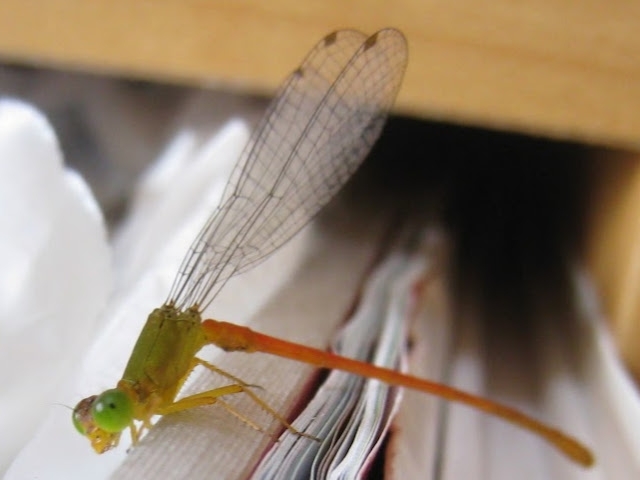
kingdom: Animalia
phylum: Arthropoda
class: Insecta
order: Odonata
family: Coenagrionidae
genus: Ceriagrion
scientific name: Ceriagrion auranticum
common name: Orange-tailed sprite
